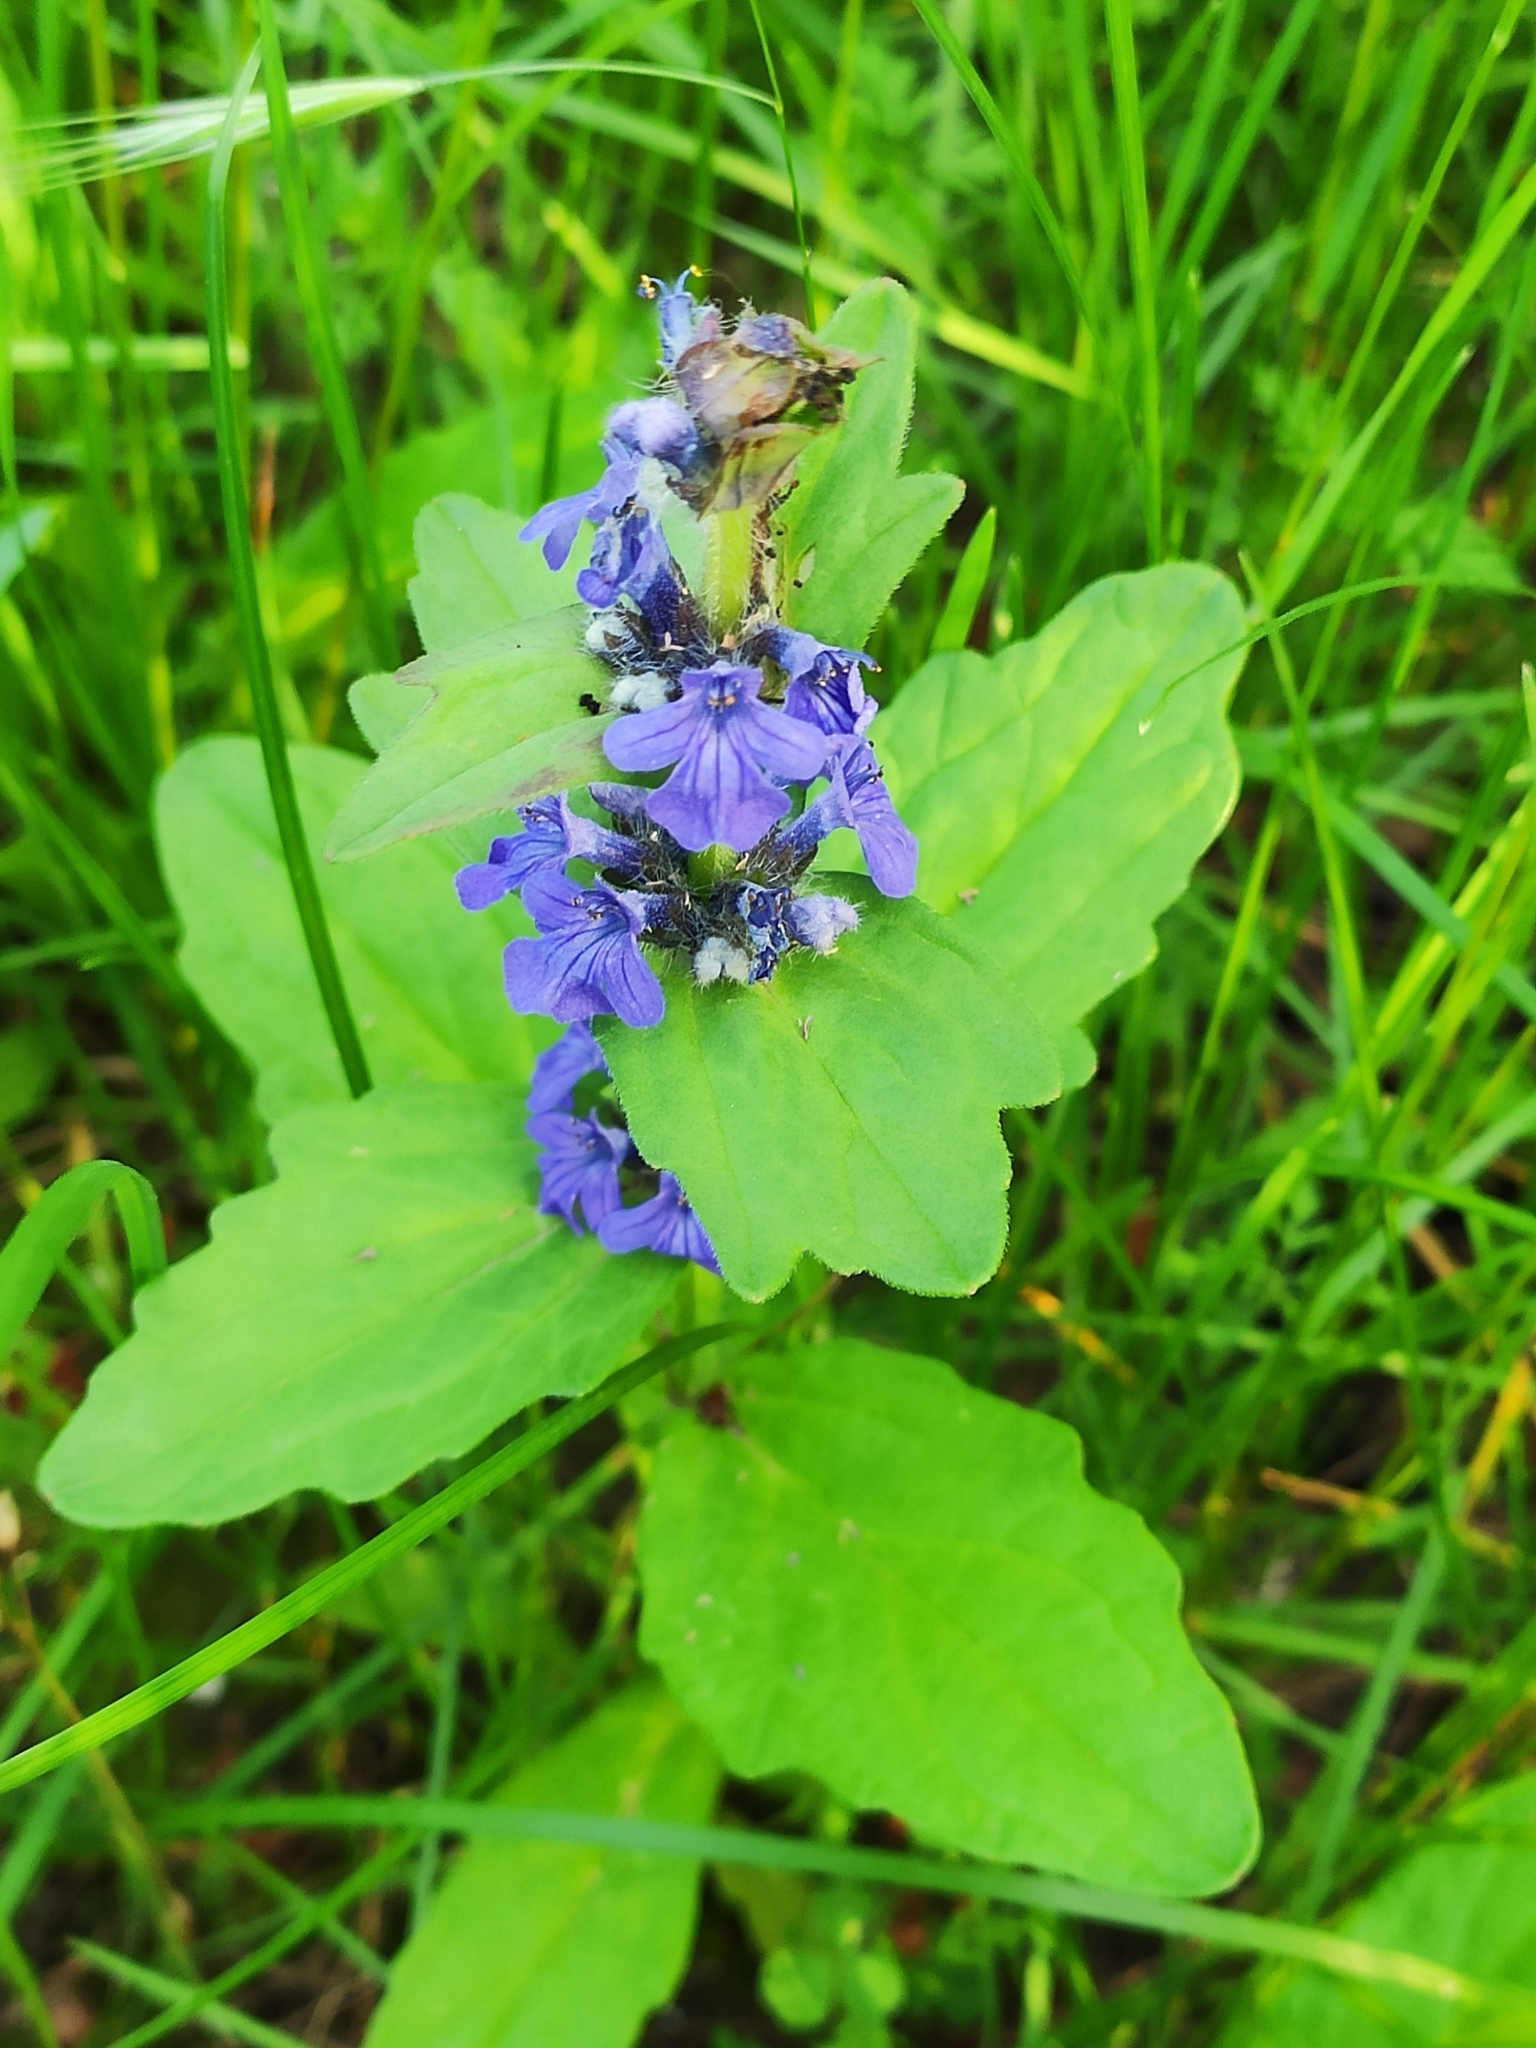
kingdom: Plantae
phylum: Tracheophyta
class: Magnoliopsida
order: Lamiales
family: Lamiaceae
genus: Ajuga
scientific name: Ajuga genevensis
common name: Blue bugle
